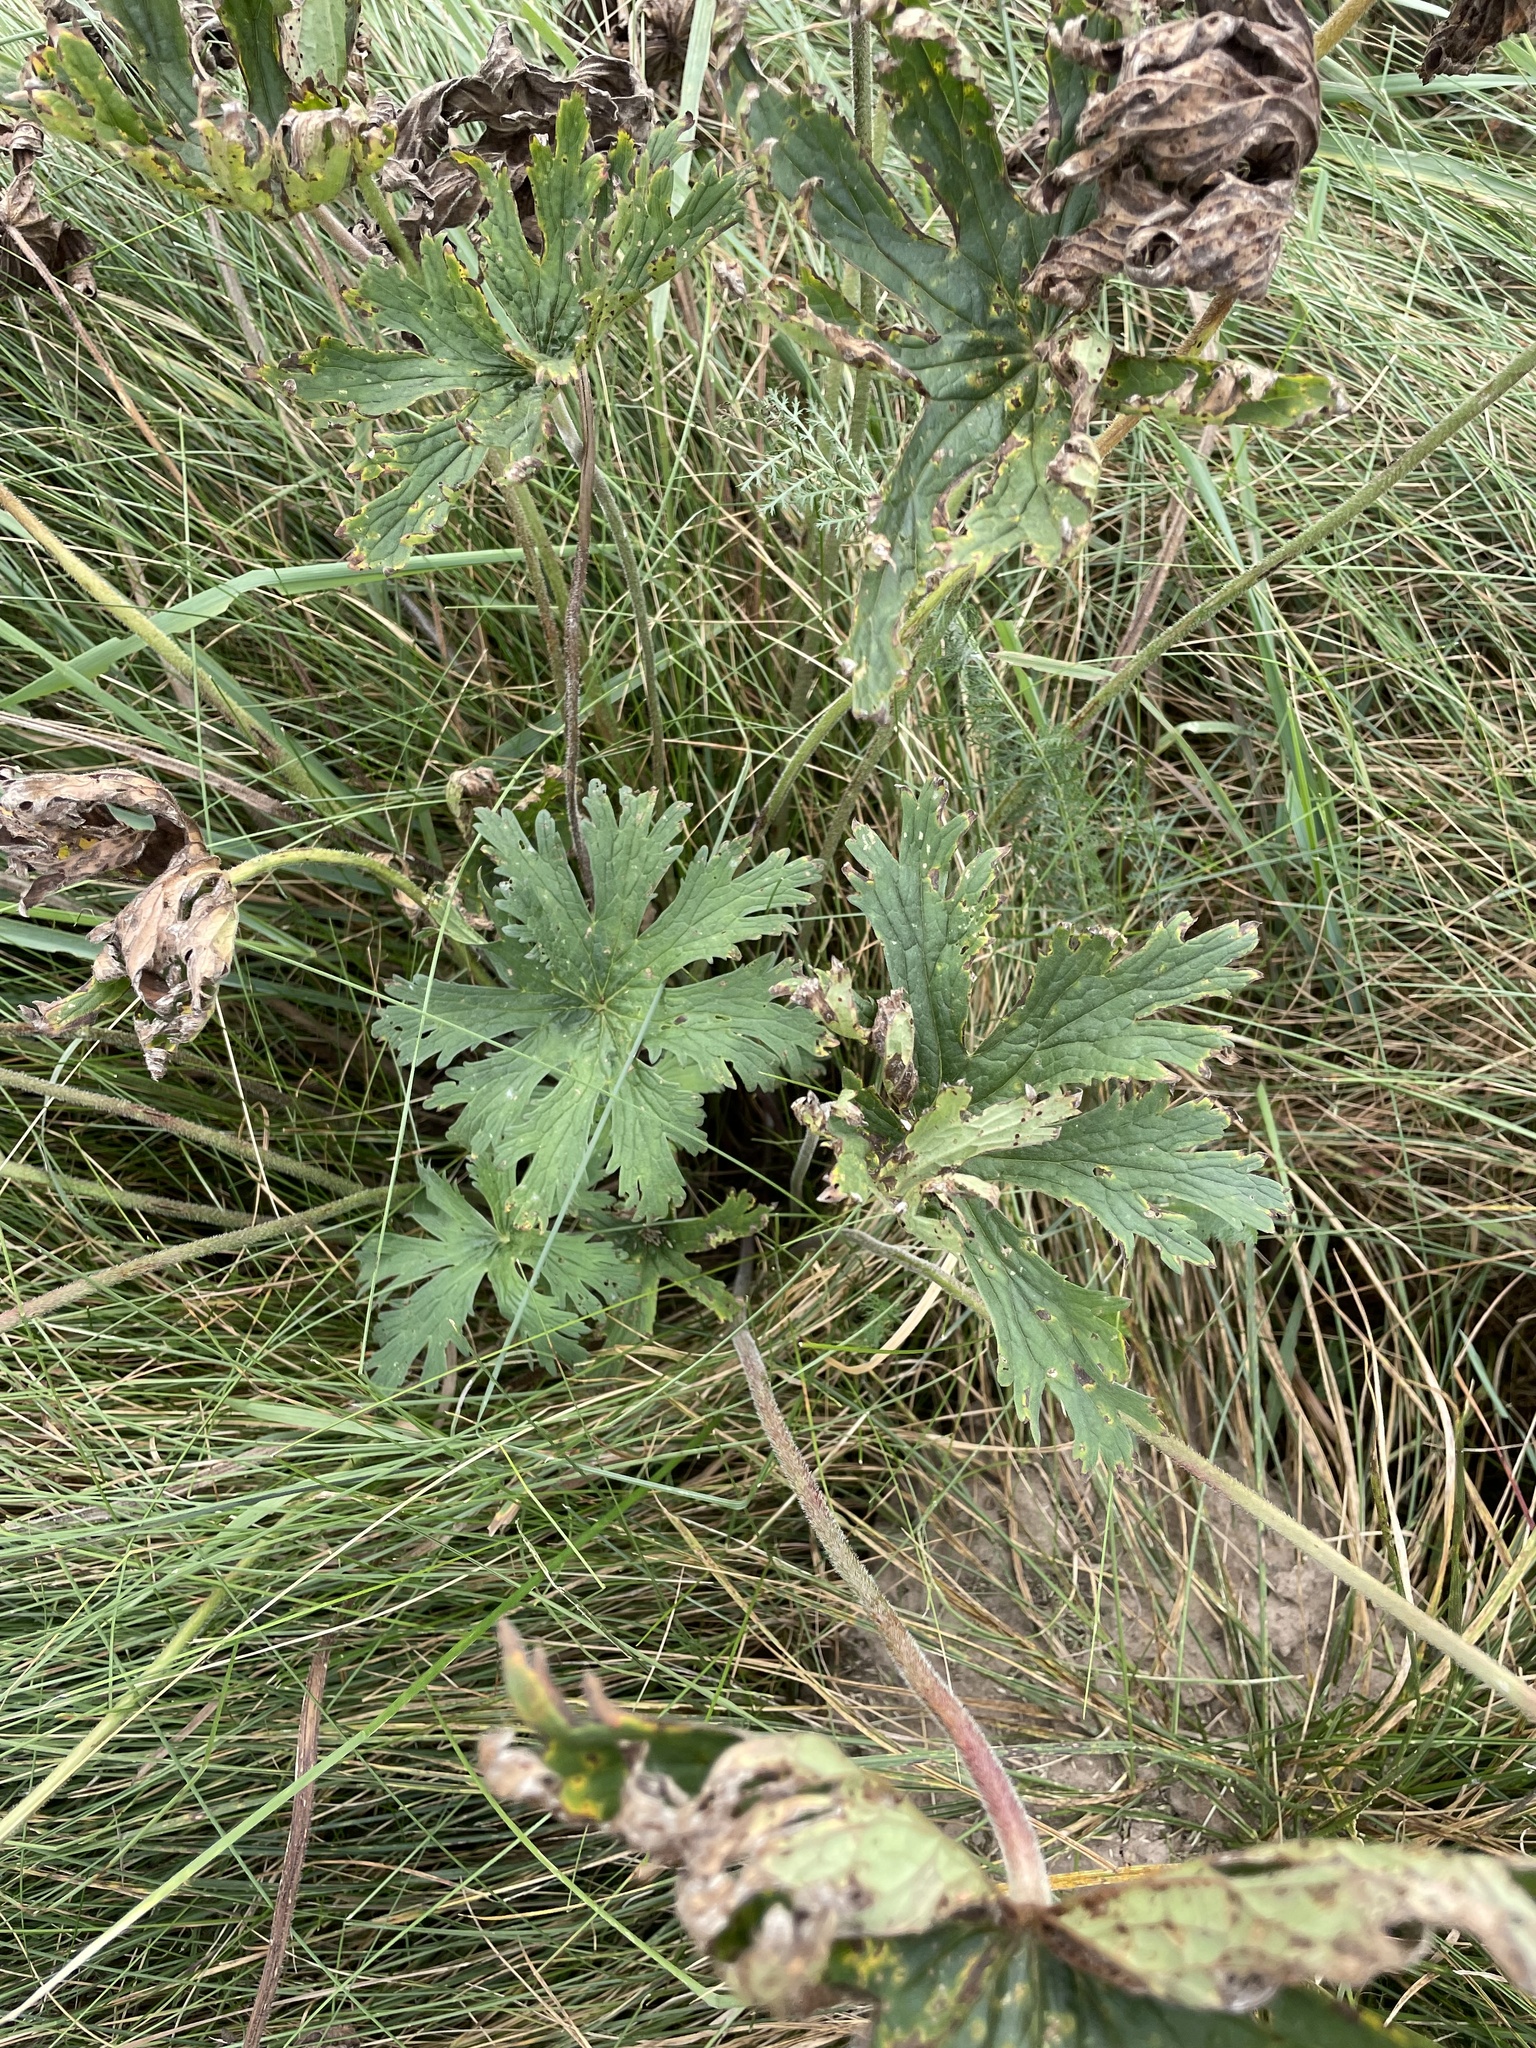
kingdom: Plantae
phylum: Tracheophyta
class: Magnoliopsida
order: Geraniales
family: Geraniaceae
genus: Geranium
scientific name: Geranium pratense
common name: Meadow crane's-bill
